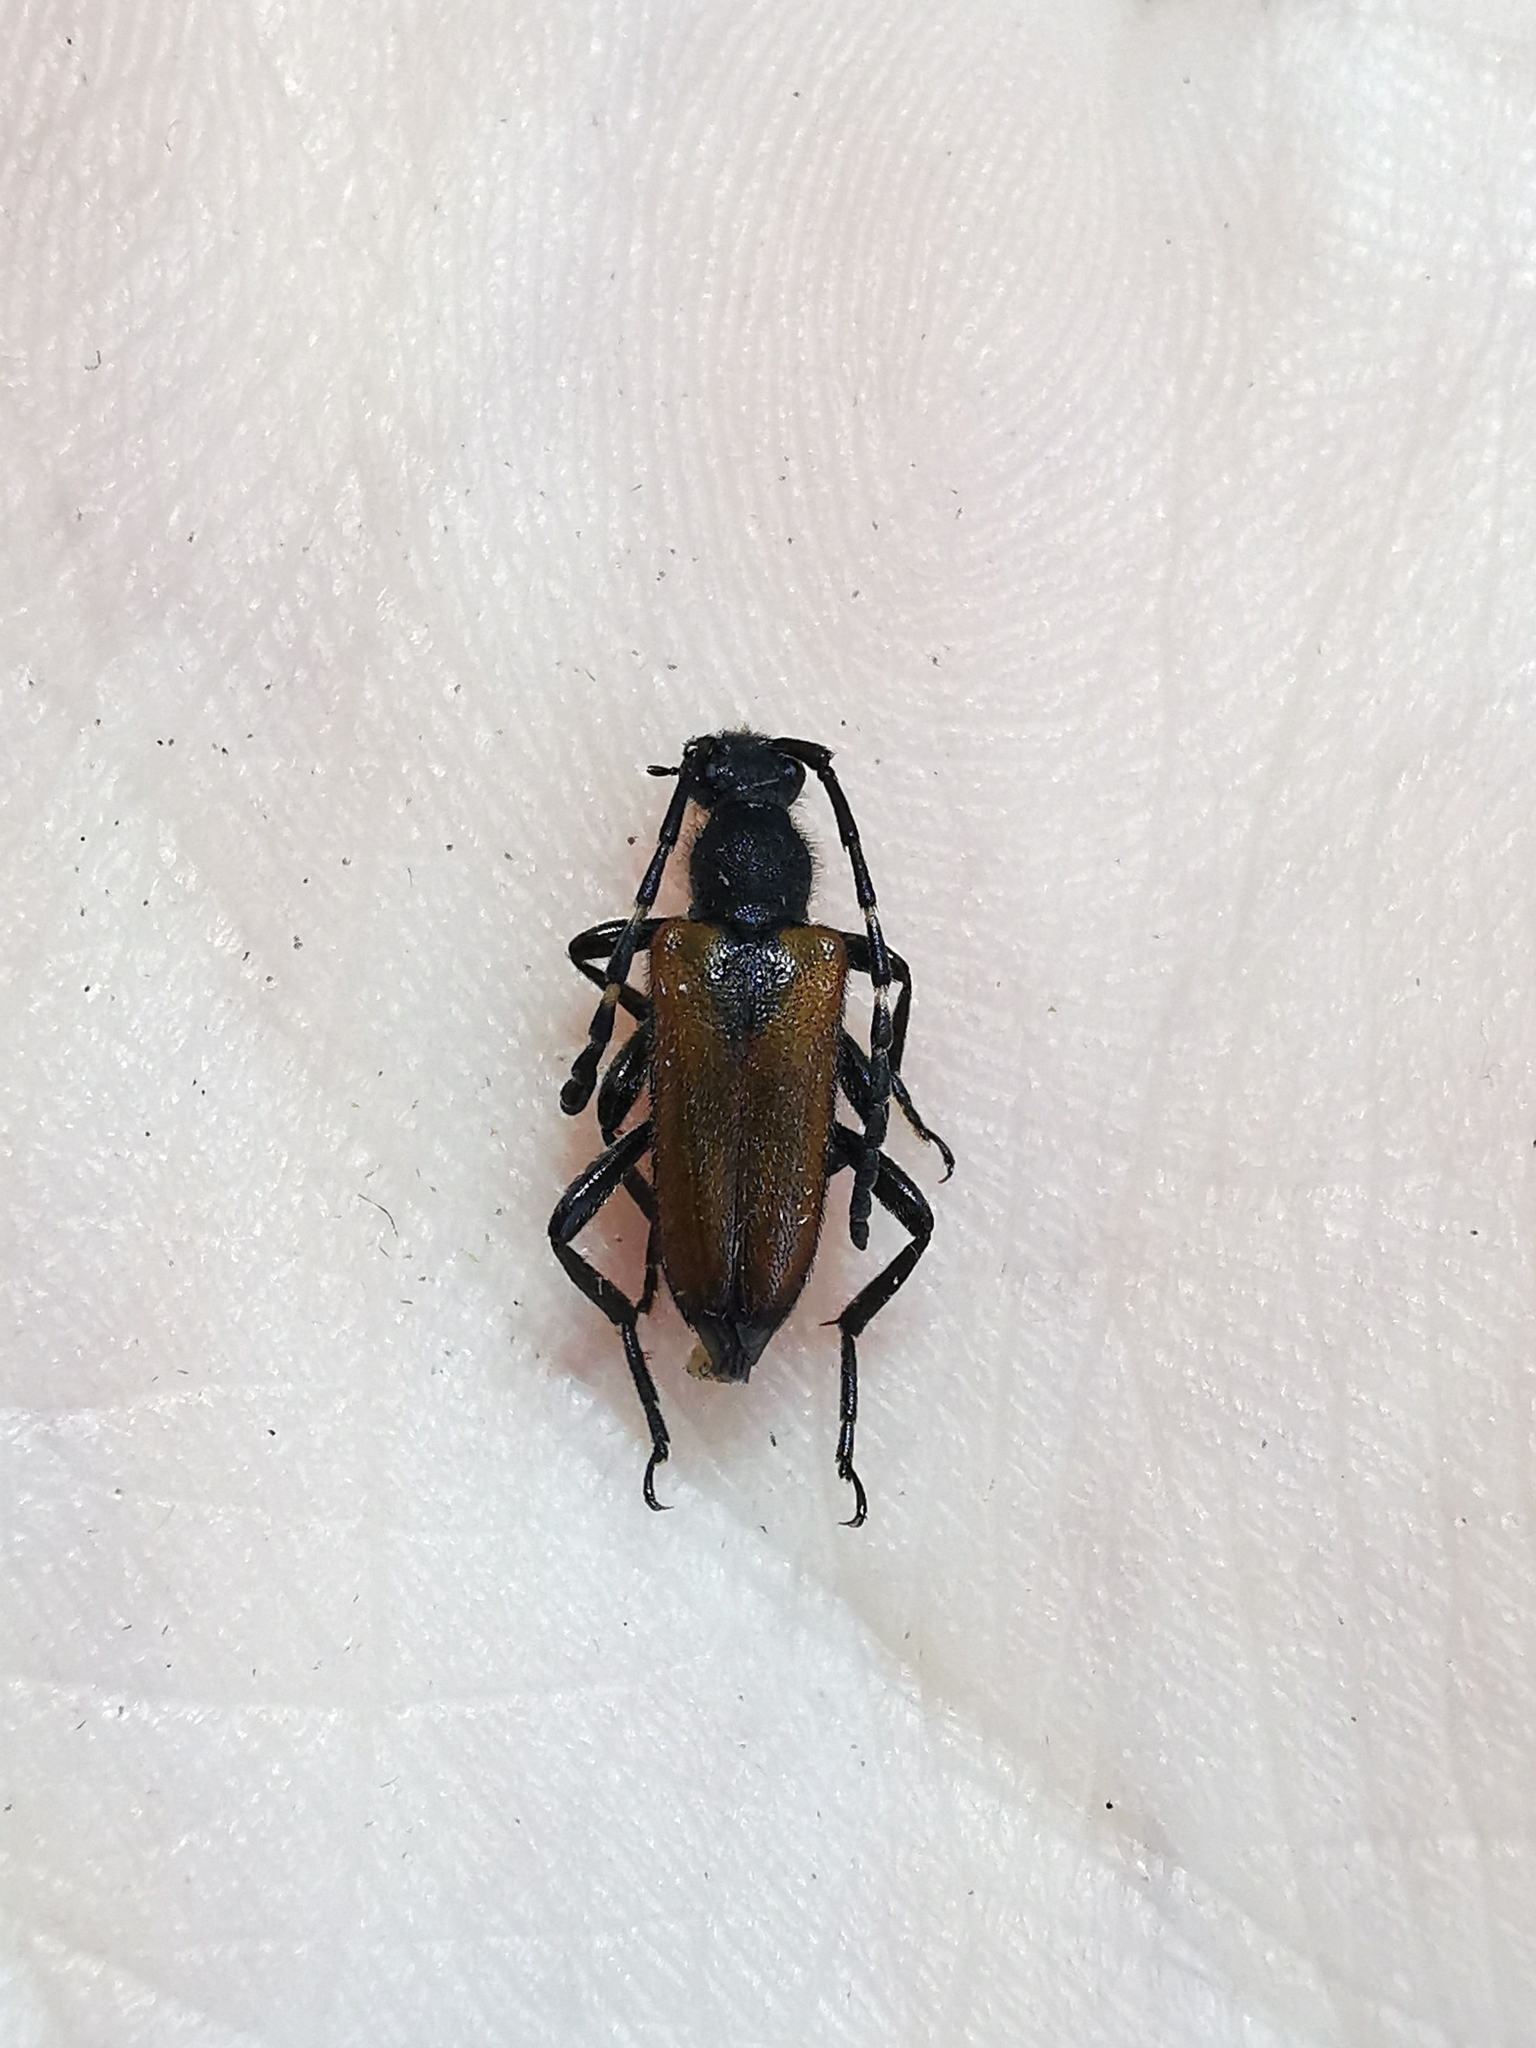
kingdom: Animalia
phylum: Arthropoda
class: Insecta
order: Coleoptera
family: Cerambycidae
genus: Paracorymbia
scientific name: Paracorymbia maculicornis
